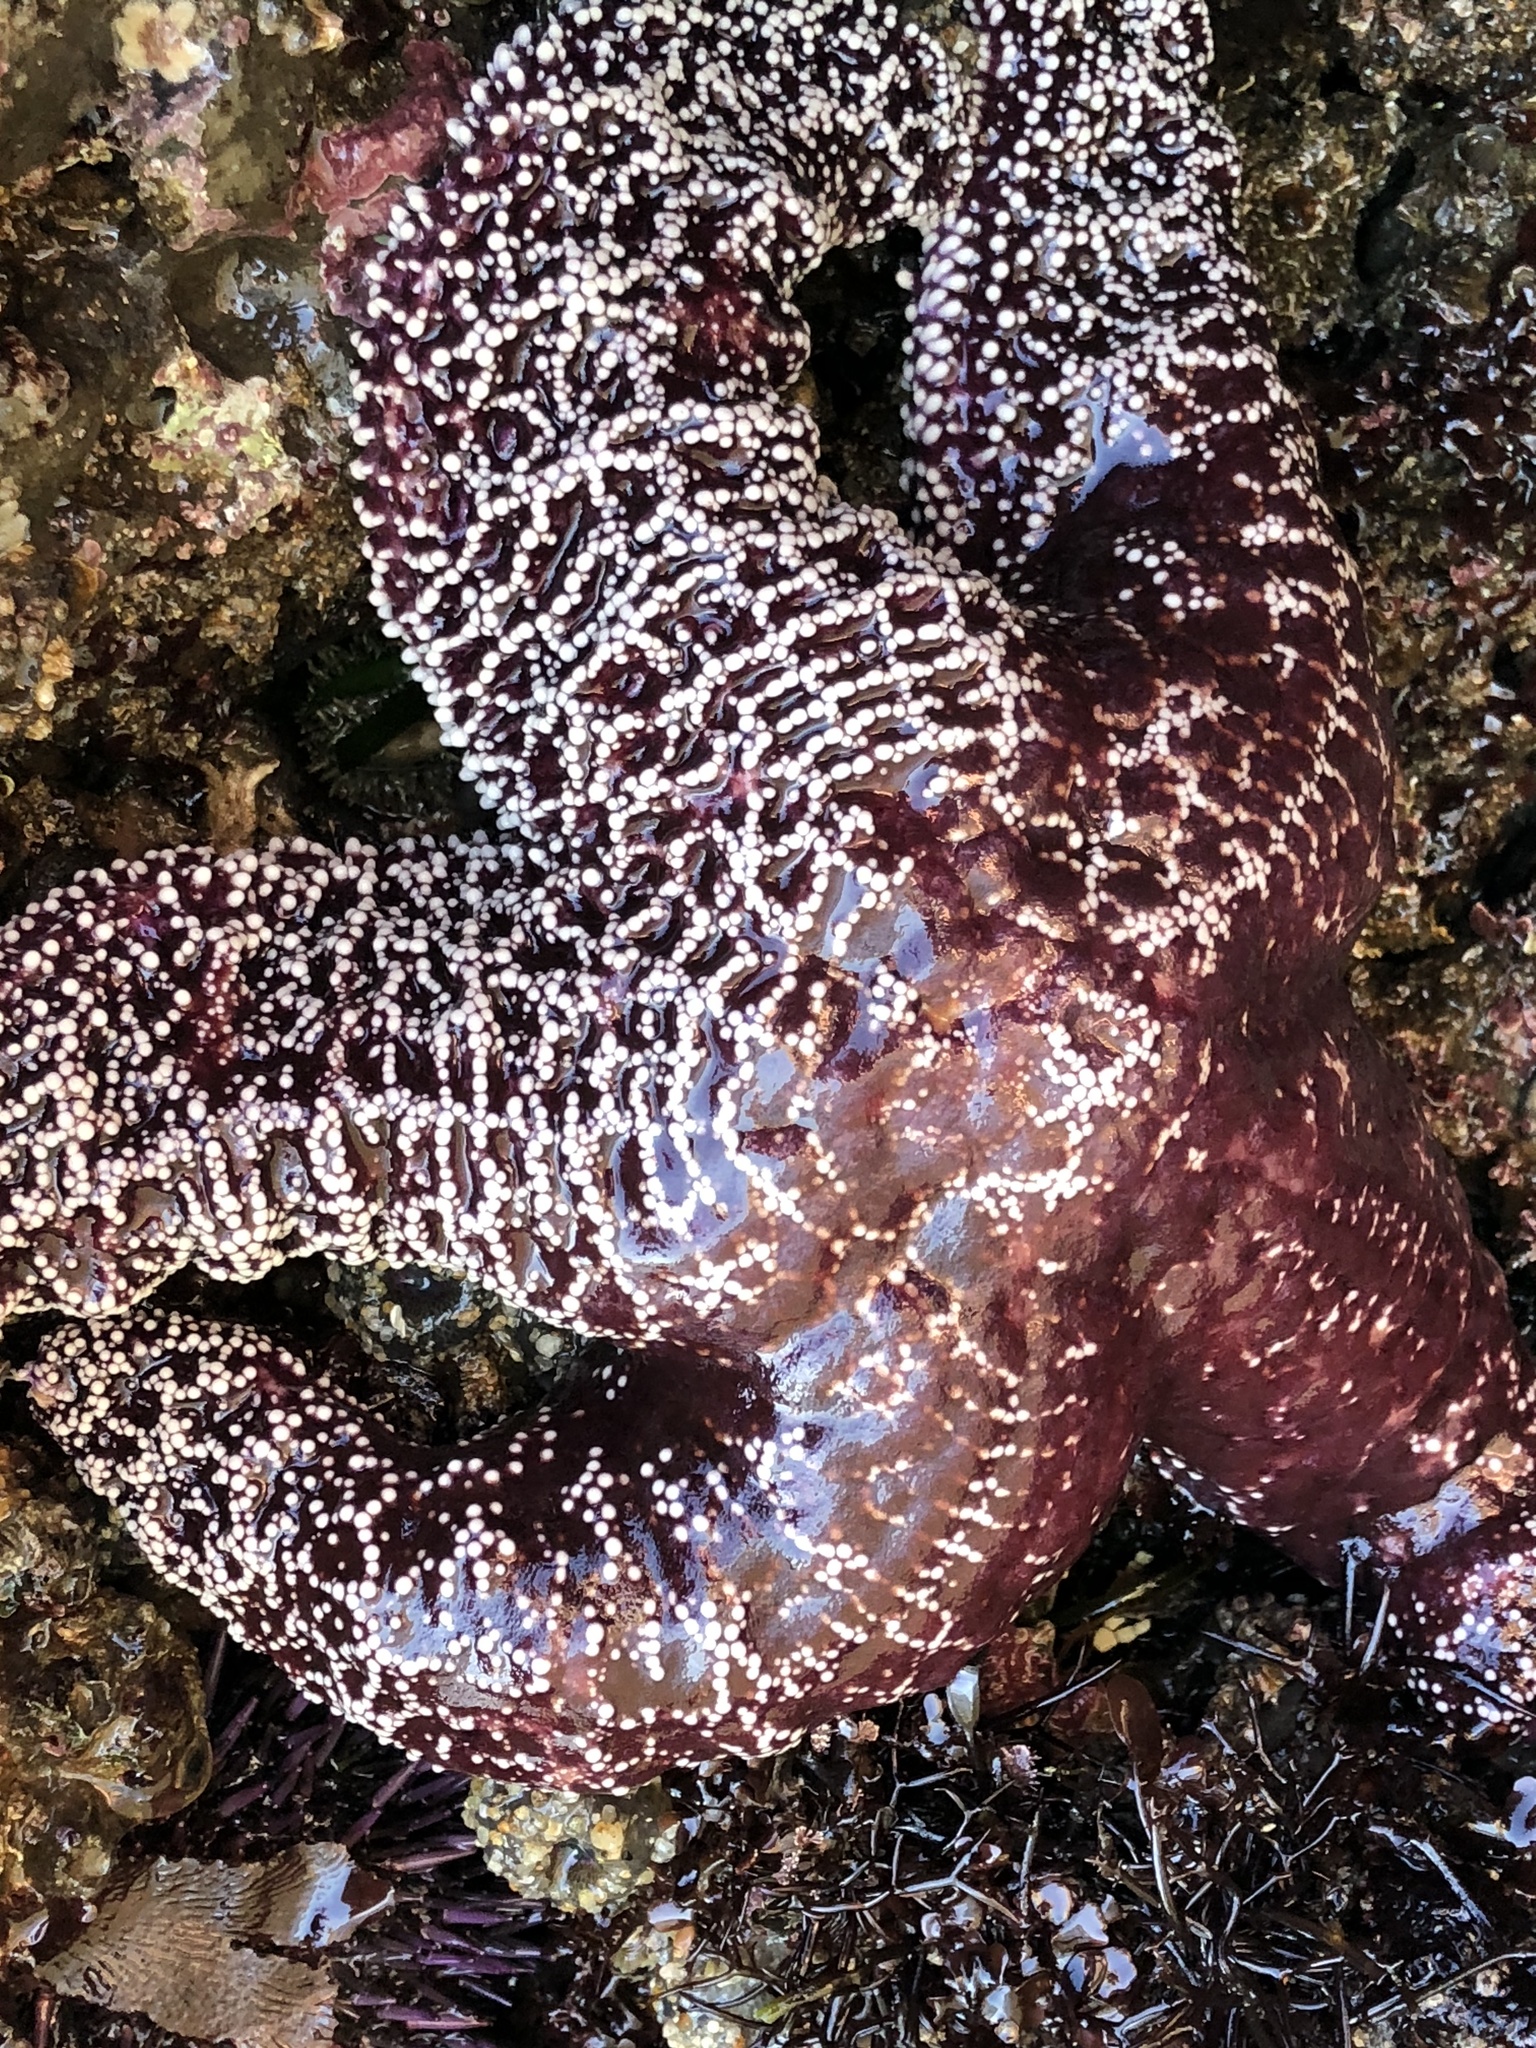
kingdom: Animalia
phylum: Echinodermata
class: Asteroidea
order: Forcipulatida
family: Asteriidae
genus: Pisaster
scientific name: Pisaster ochraceus
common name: Ochre stars
